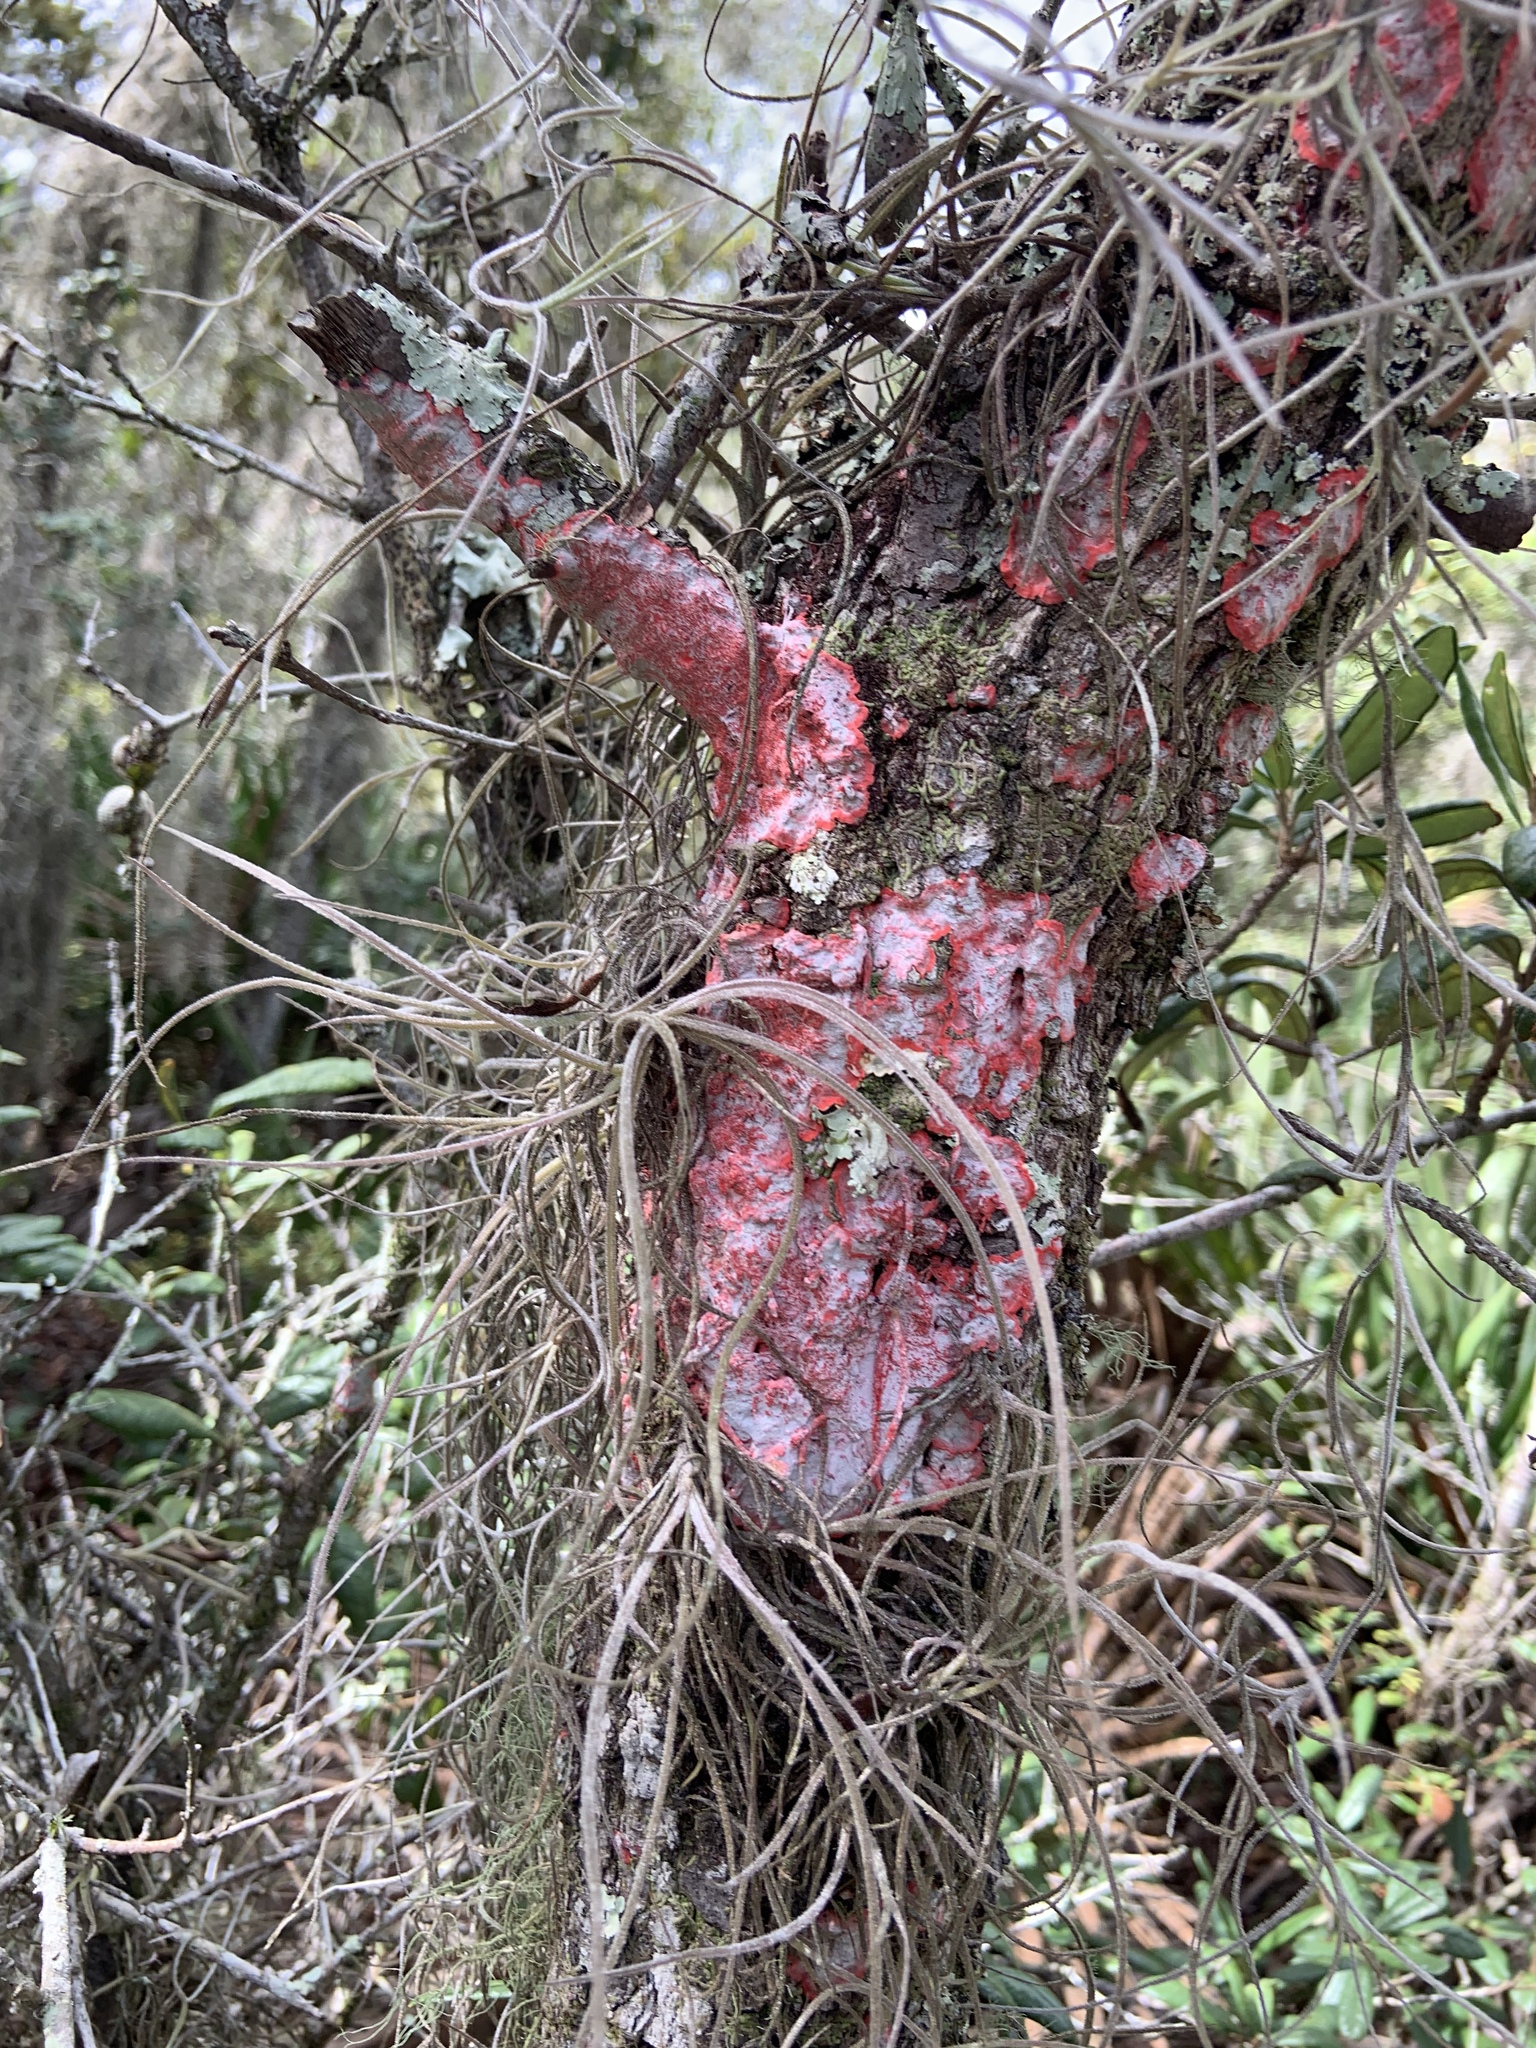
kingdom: Fungi
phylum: Ascomycota
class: Arthoniomycetes
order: Arthoniales
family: Arthoniaceae
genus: Herpothallon
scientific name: Herpothallon rubrocinctum
